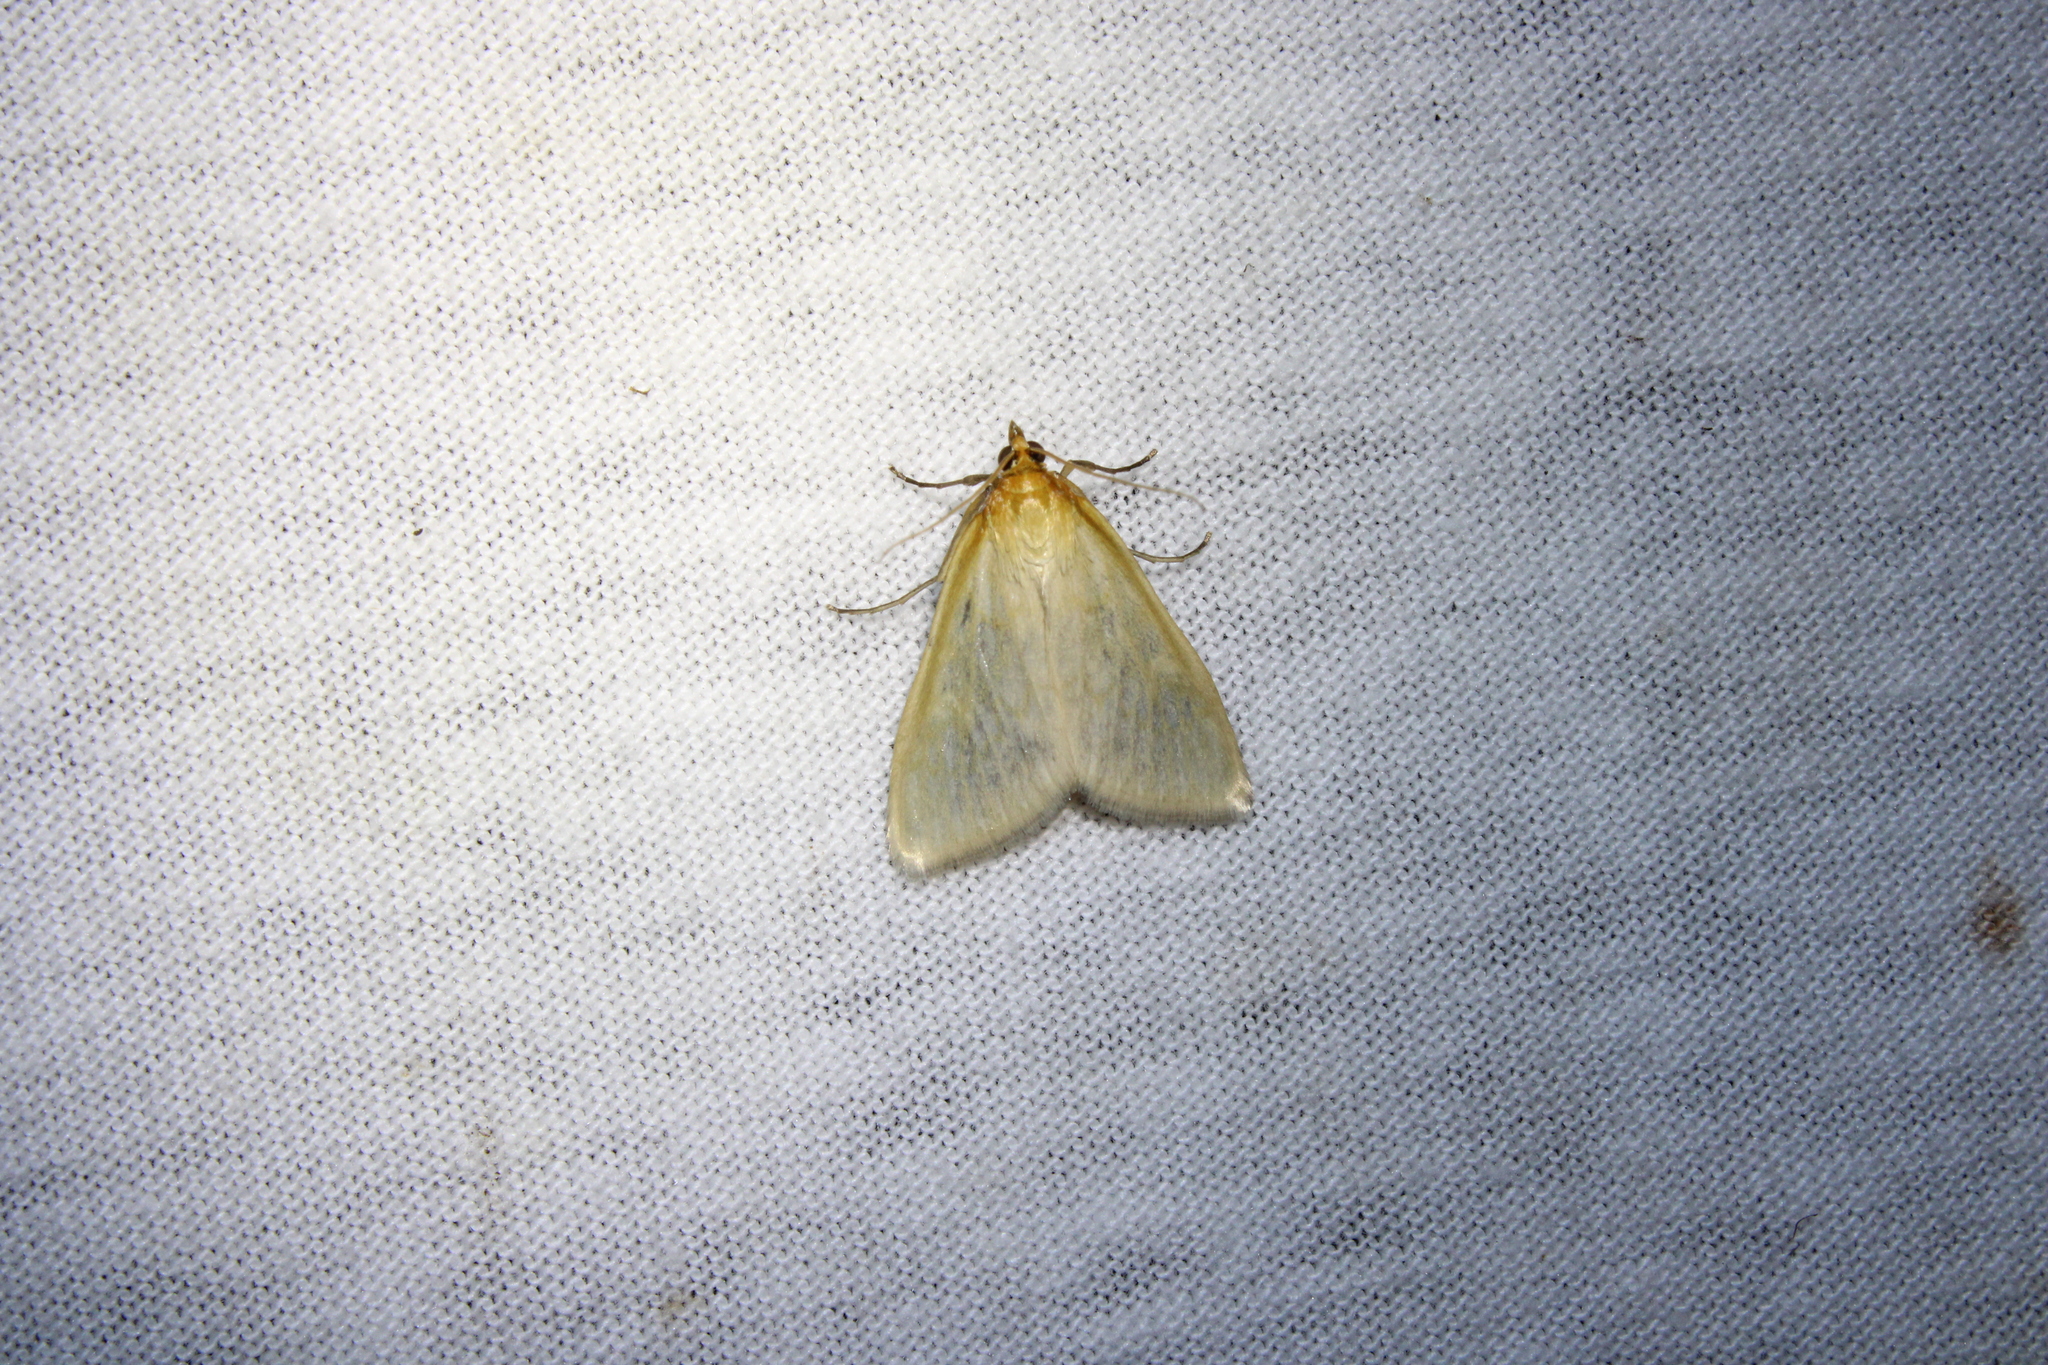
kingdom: Animalia
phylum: Arthropoda
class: Insecta
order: Lepidoptera
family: Crambidae
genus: Sitochroa
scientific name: Sitochroa dasconalis
